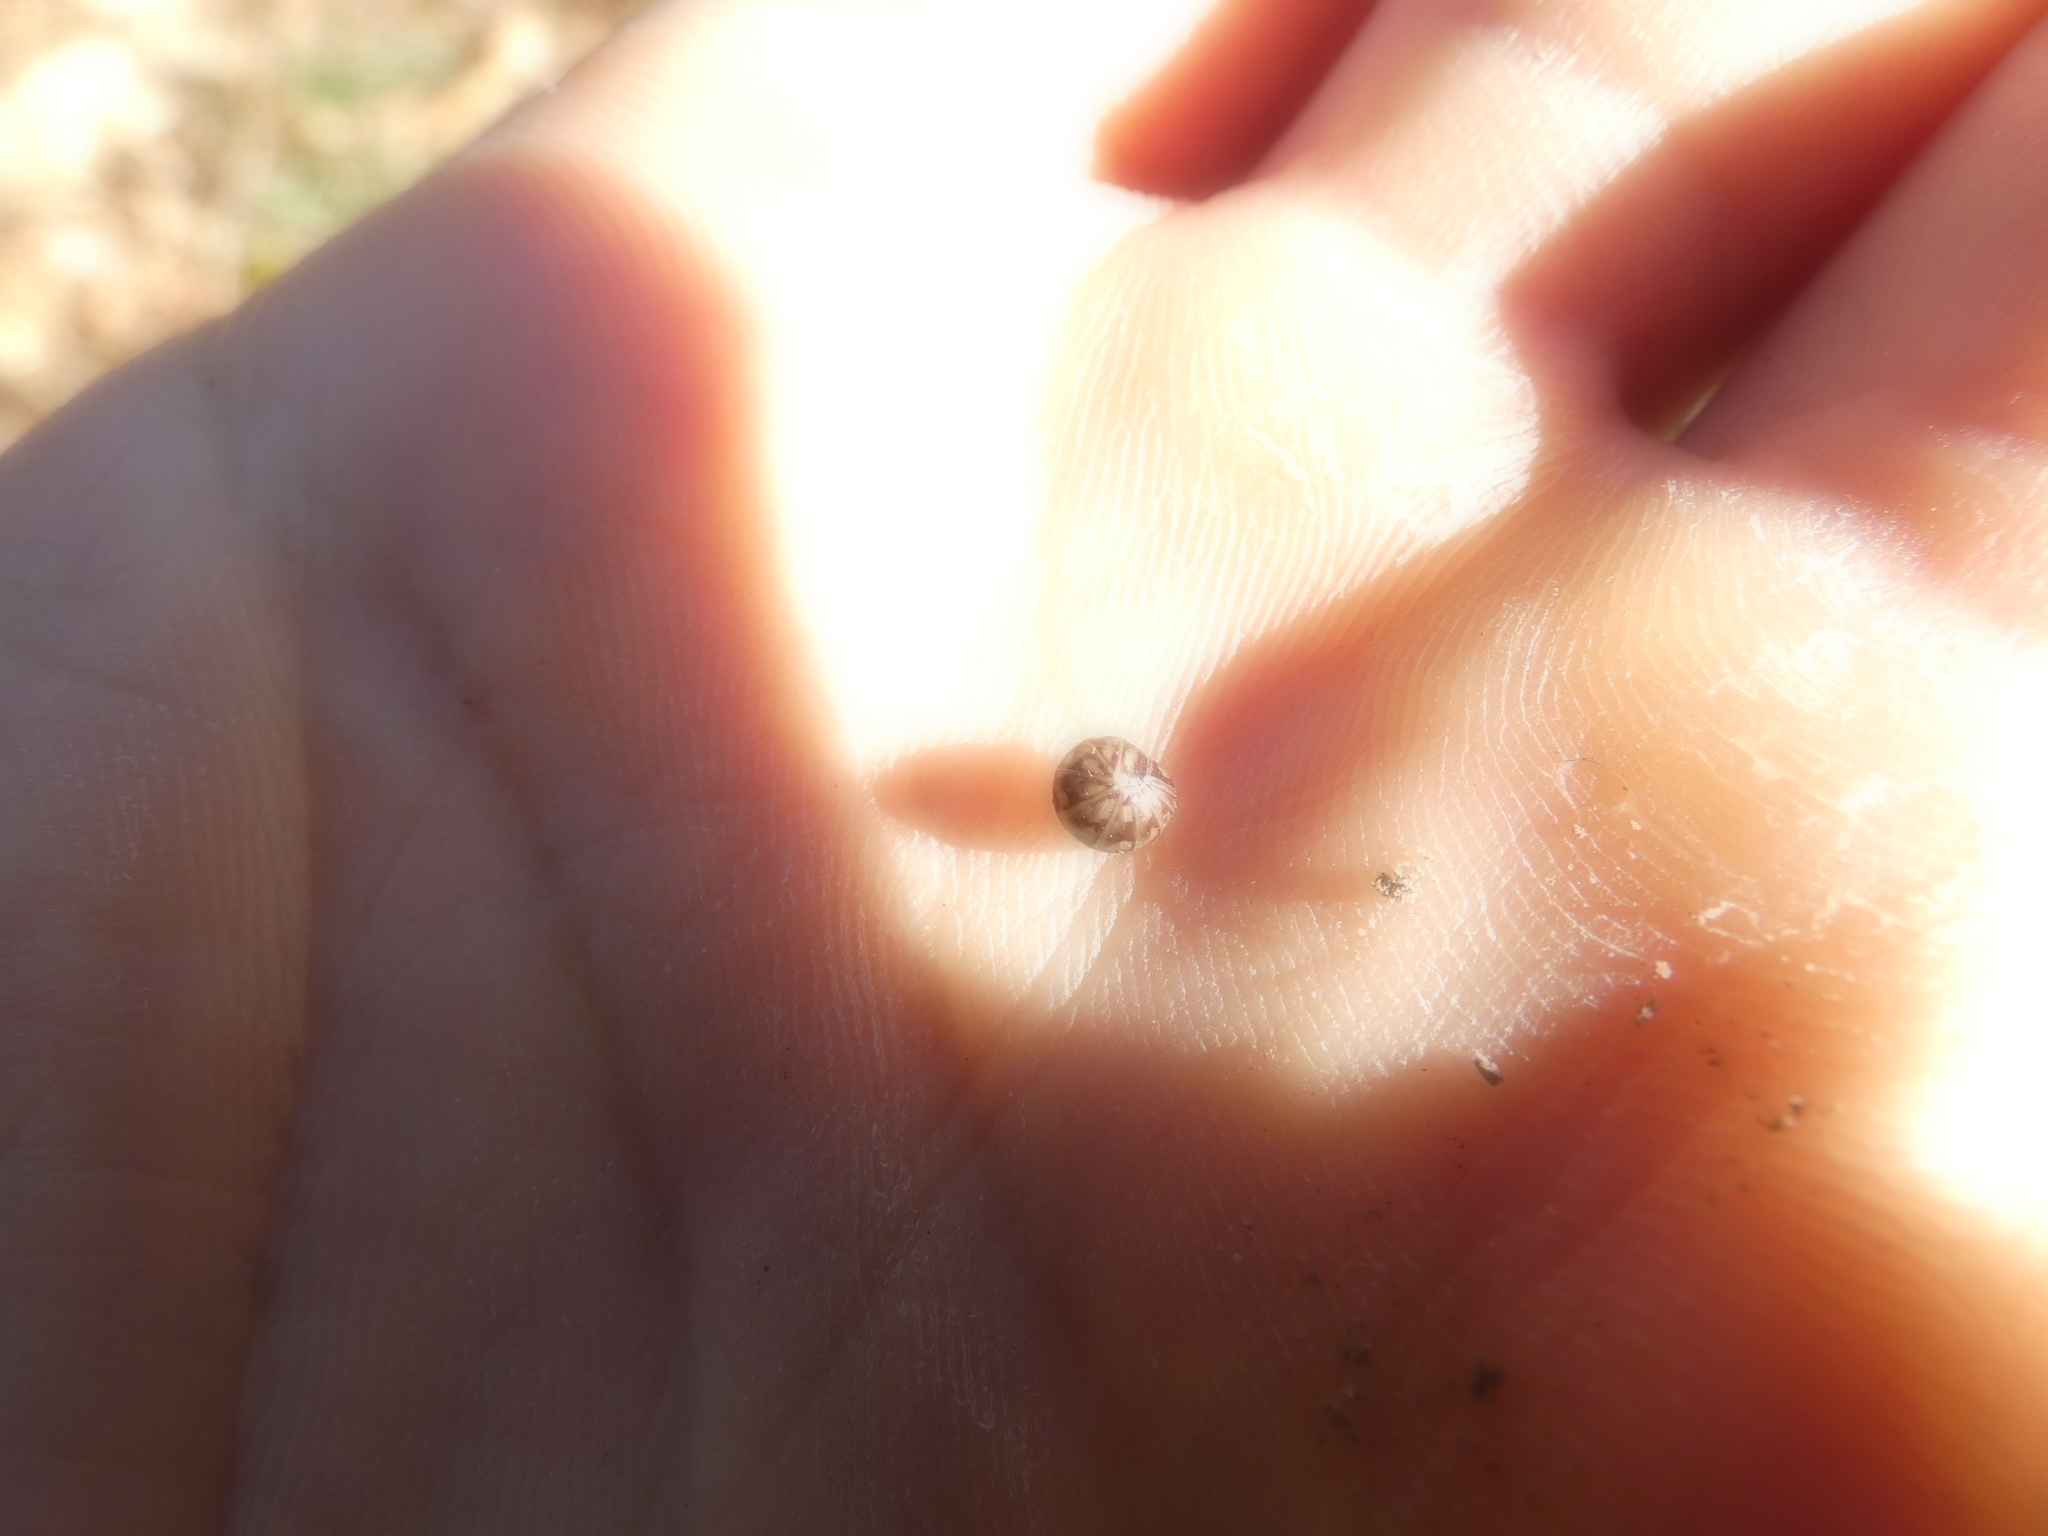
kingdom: Animalia
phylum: Arthropoda
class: Diplopoda
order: Glomerida
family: Glomeridae
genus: Glomeris
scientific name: Glomeris marginata
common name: Bordered pill millipede
